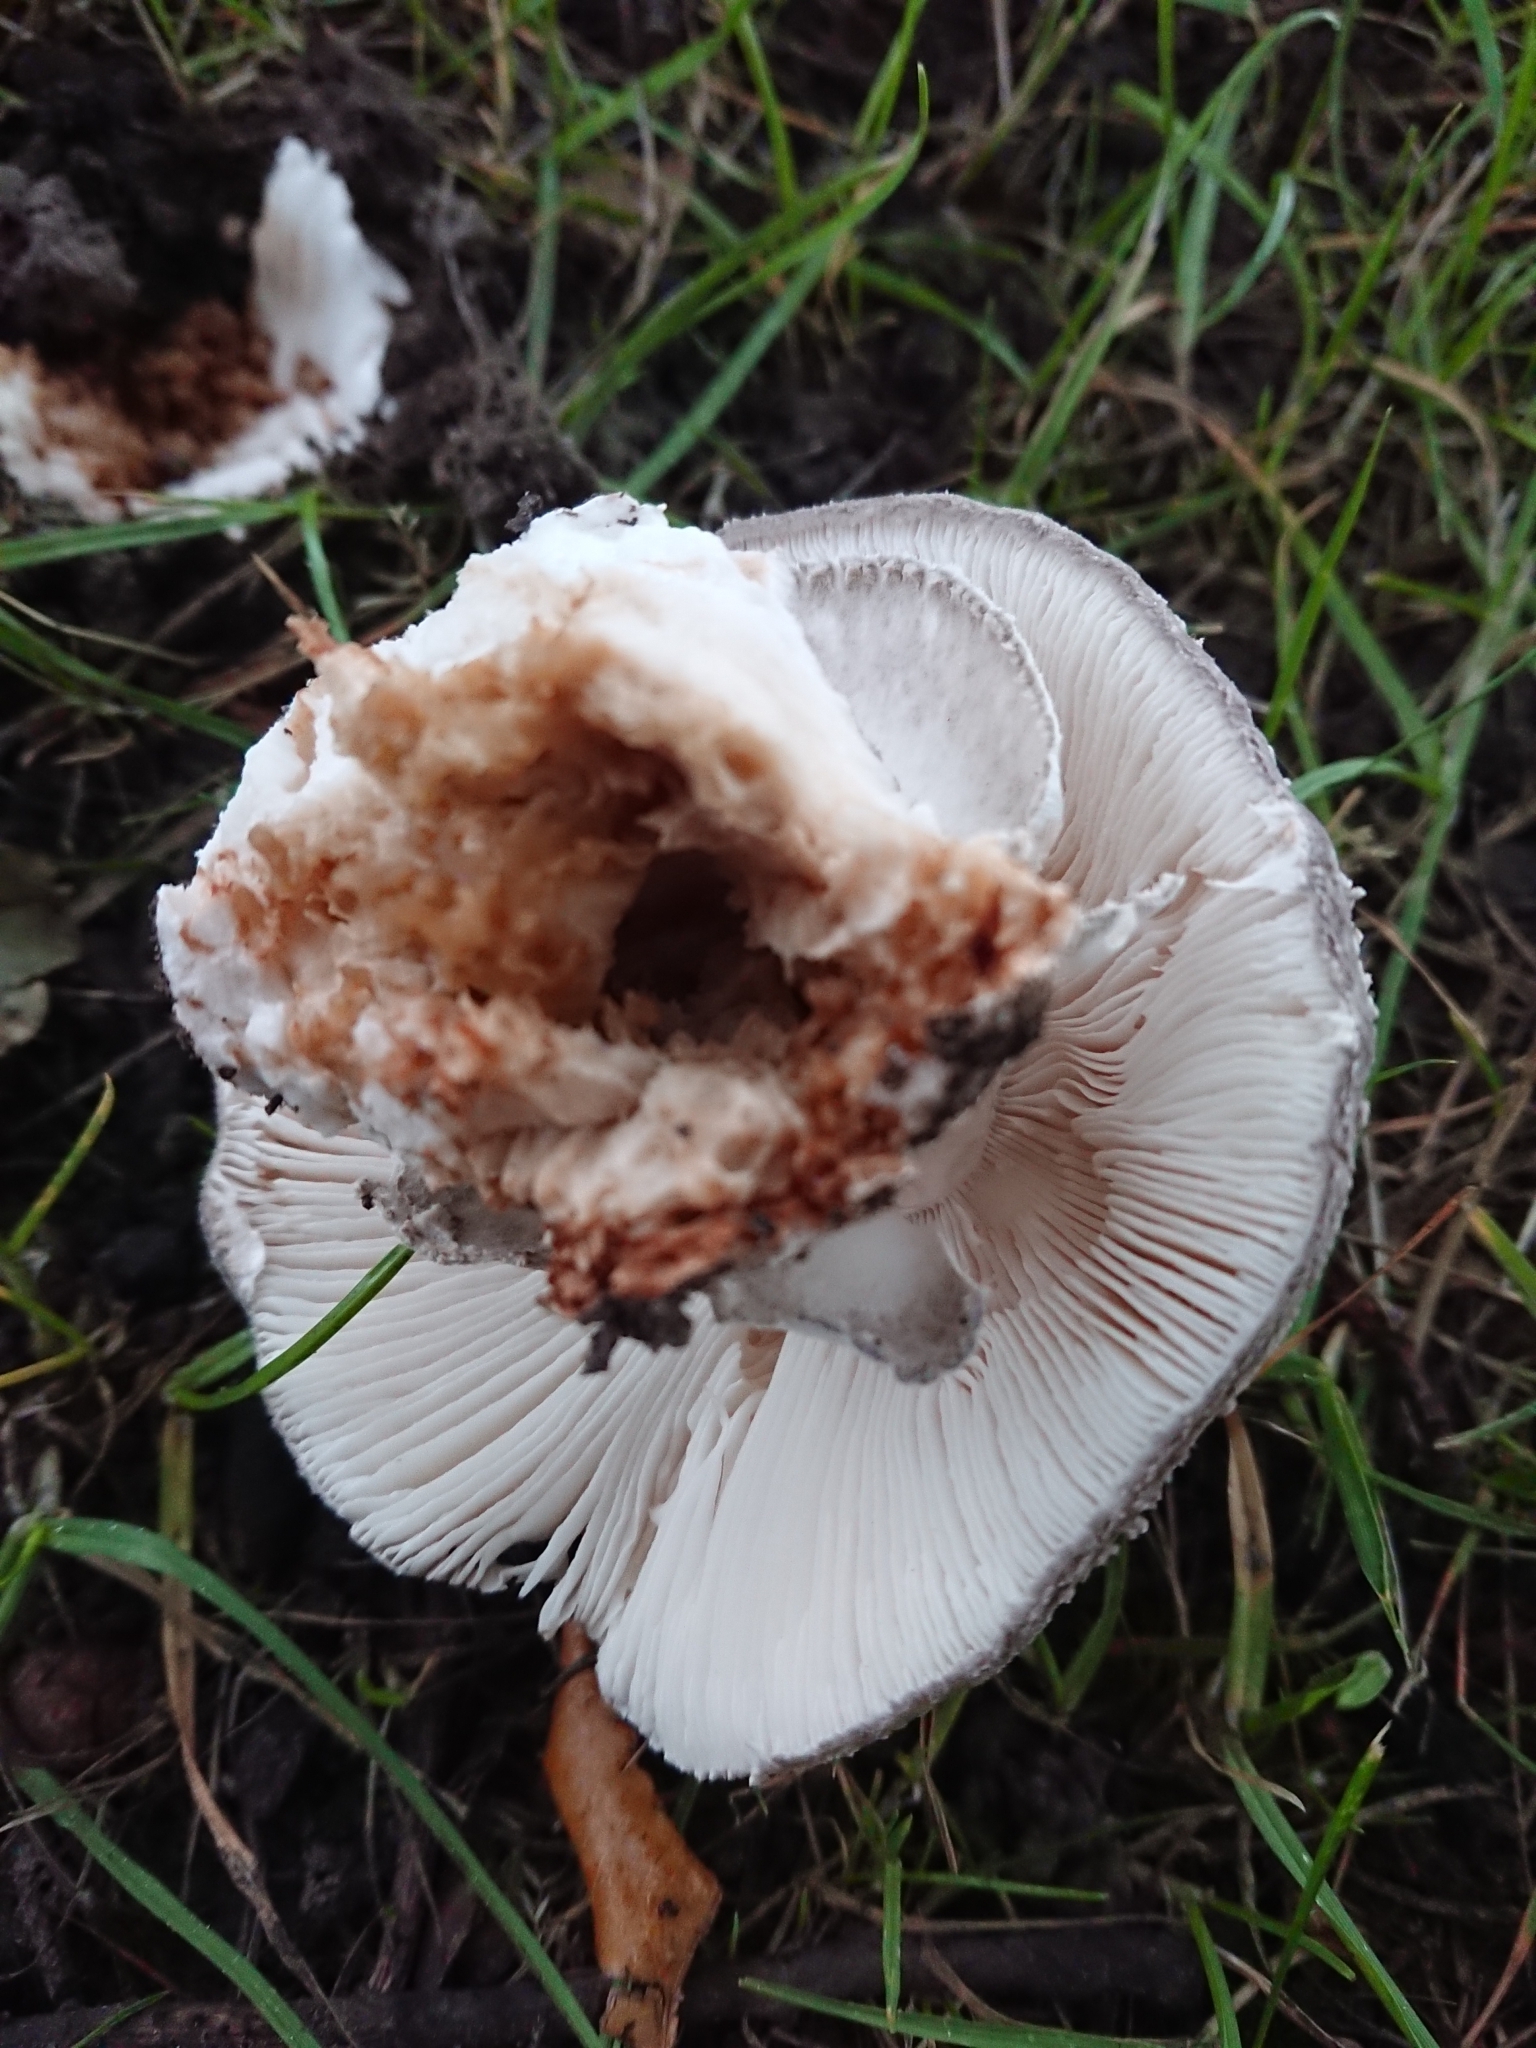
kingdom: Fungi
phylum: Basidiomycota
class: Agaricomycetes
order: Agaricales
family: Amanitaceae
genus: Amanita
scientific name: Amanita excelsa
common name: European false blusher
